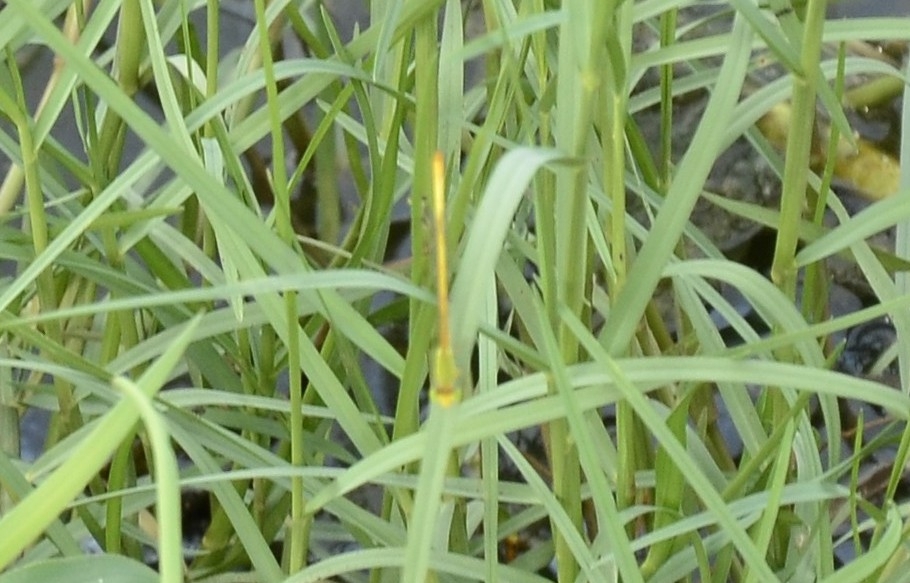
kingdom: Animalia
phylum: Arthropoda
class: Insecta
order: Odonata
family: Coenagrionidae
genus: Ceriagrion
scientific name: Ceriagrion coromandelianum
